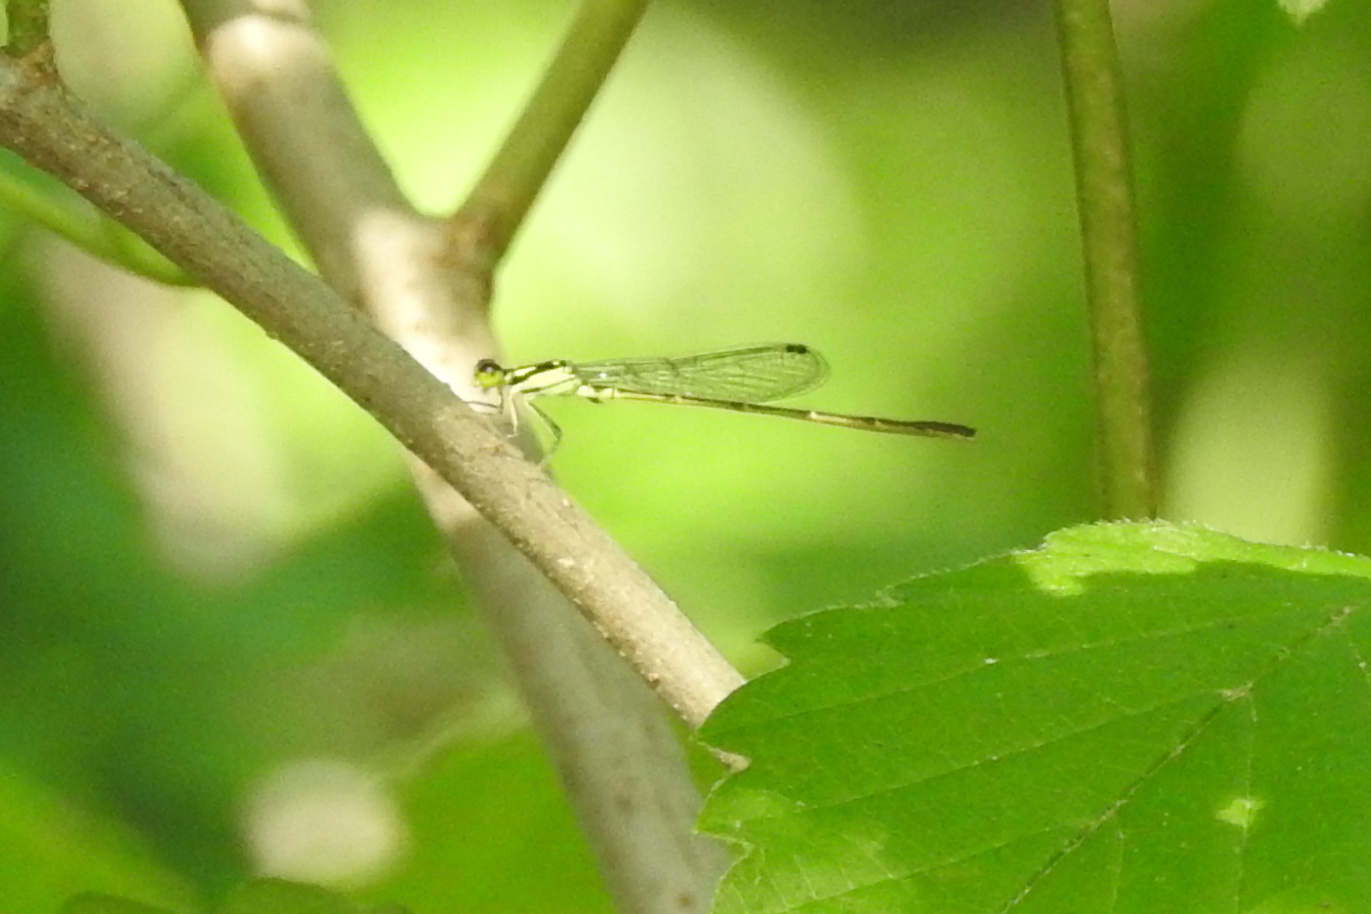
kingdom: Animalia
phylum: Arthropoda
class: Insecta
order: Odonata
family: Coenagrionidae
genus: Ischnura
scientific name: Ischnura posita
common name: Fragile forktail
